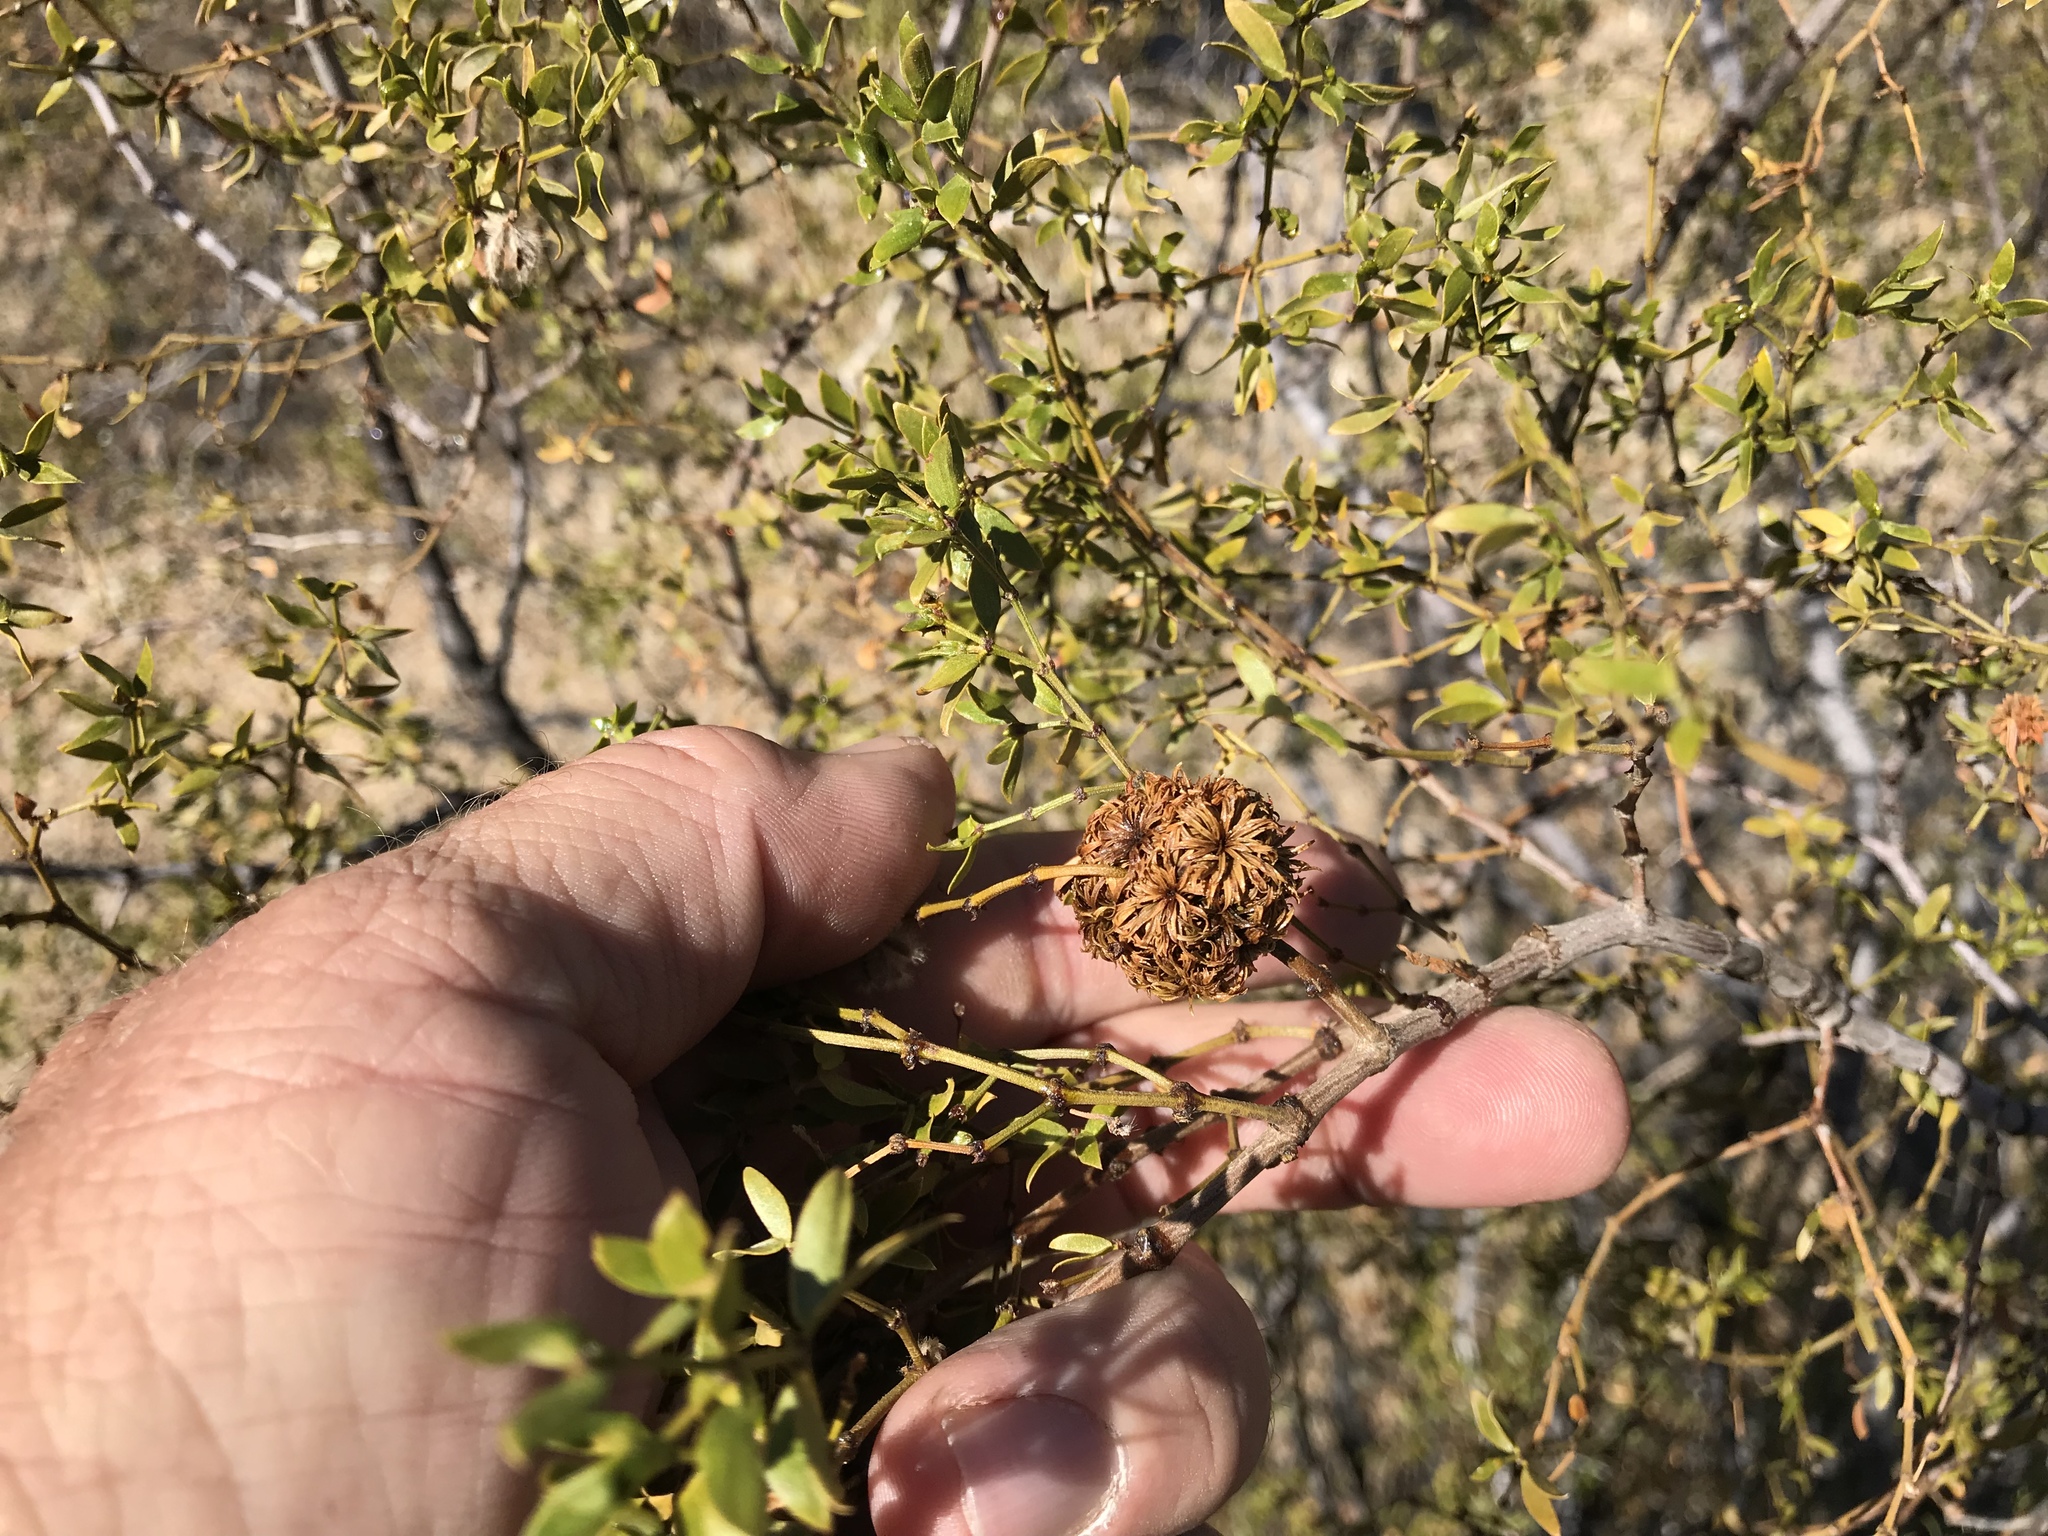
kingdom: Animalia
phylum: Arthropoda
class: Insecta
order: Diptera
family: Cecidomyiidae
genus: Asphondylia
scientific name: Asphondylia auripila
